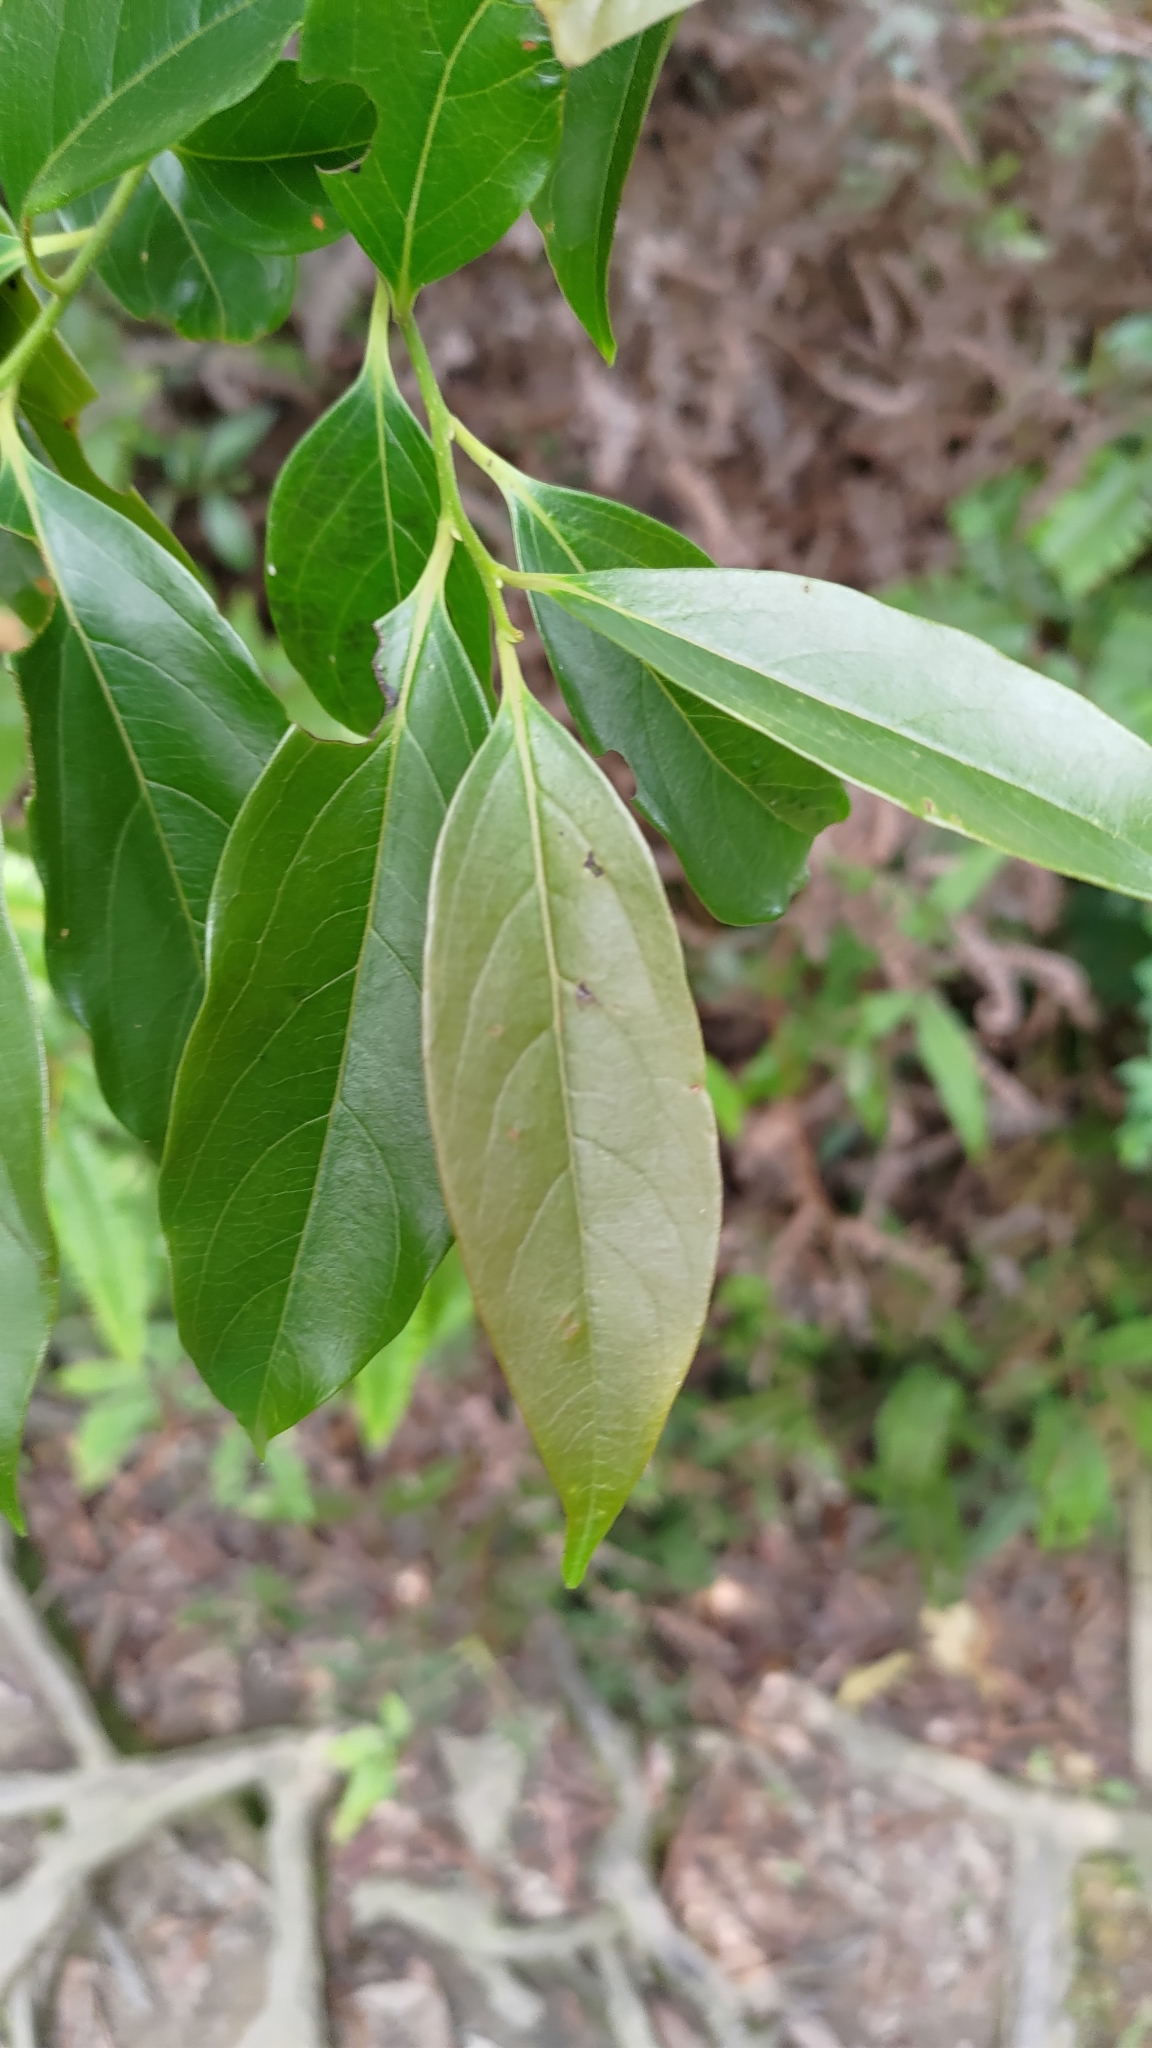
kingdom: Plantae
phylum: Tracheophyta
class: Magnoliopsida
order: Ericales
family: Ebenaceae
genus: Diospyros
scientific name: Diospyros morrisiana
